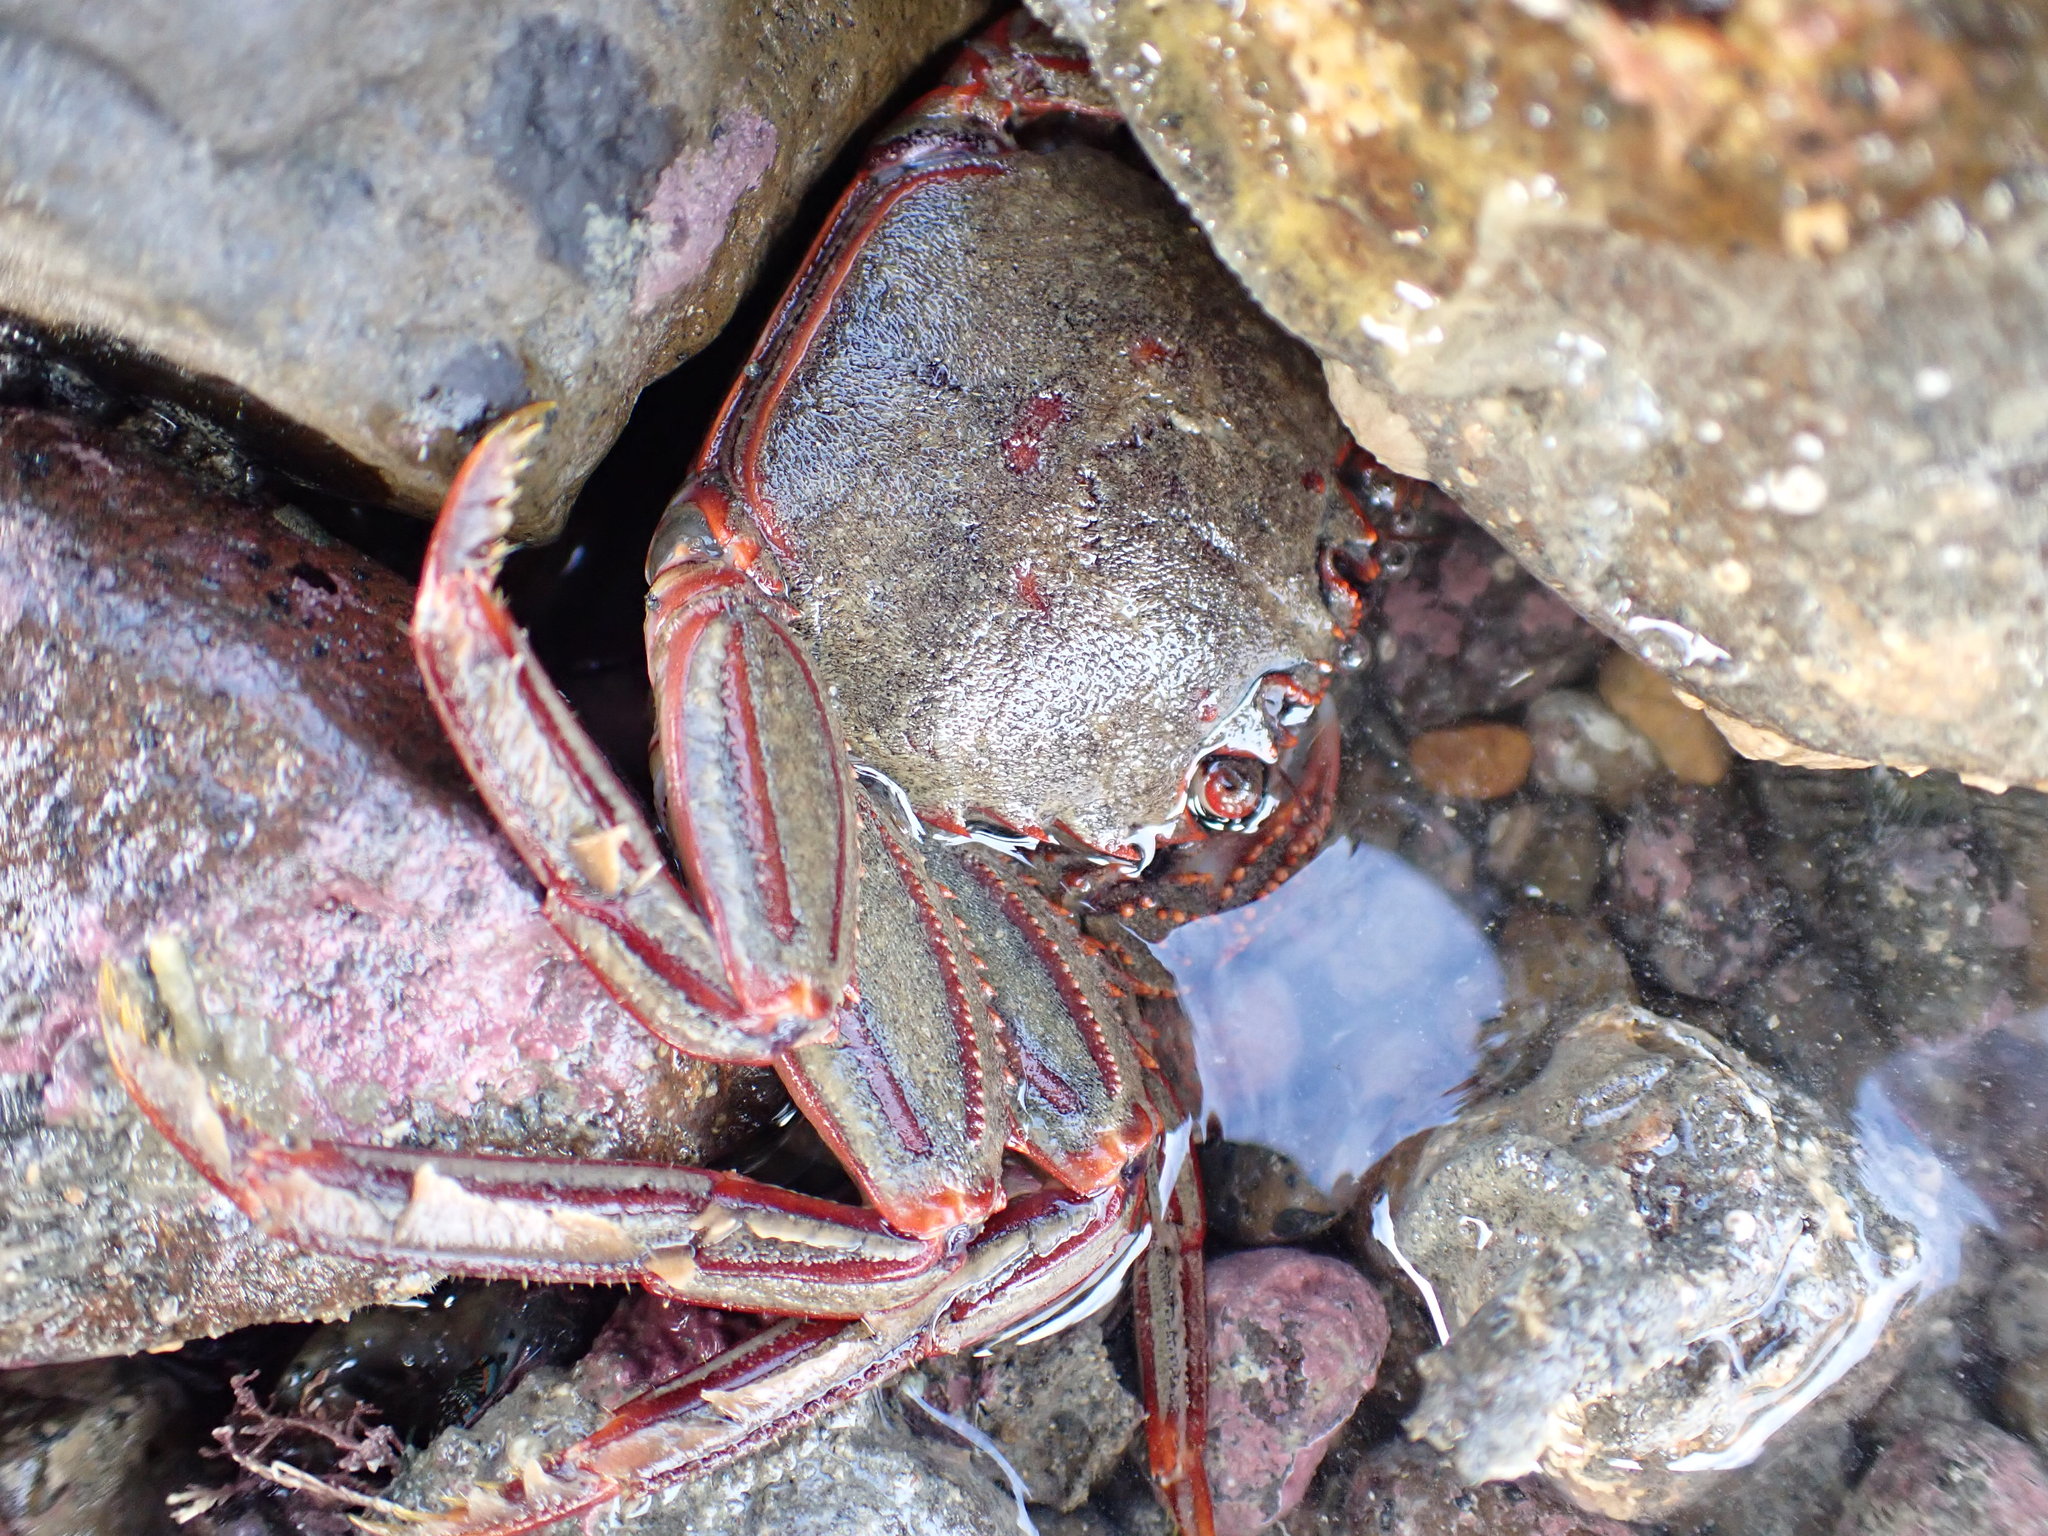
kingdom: Animalia
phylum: Arthropoda
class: Malacostraca
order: Decapoda
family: Plagusiidae
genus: Guinusia
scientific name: Guinusia chabrus
